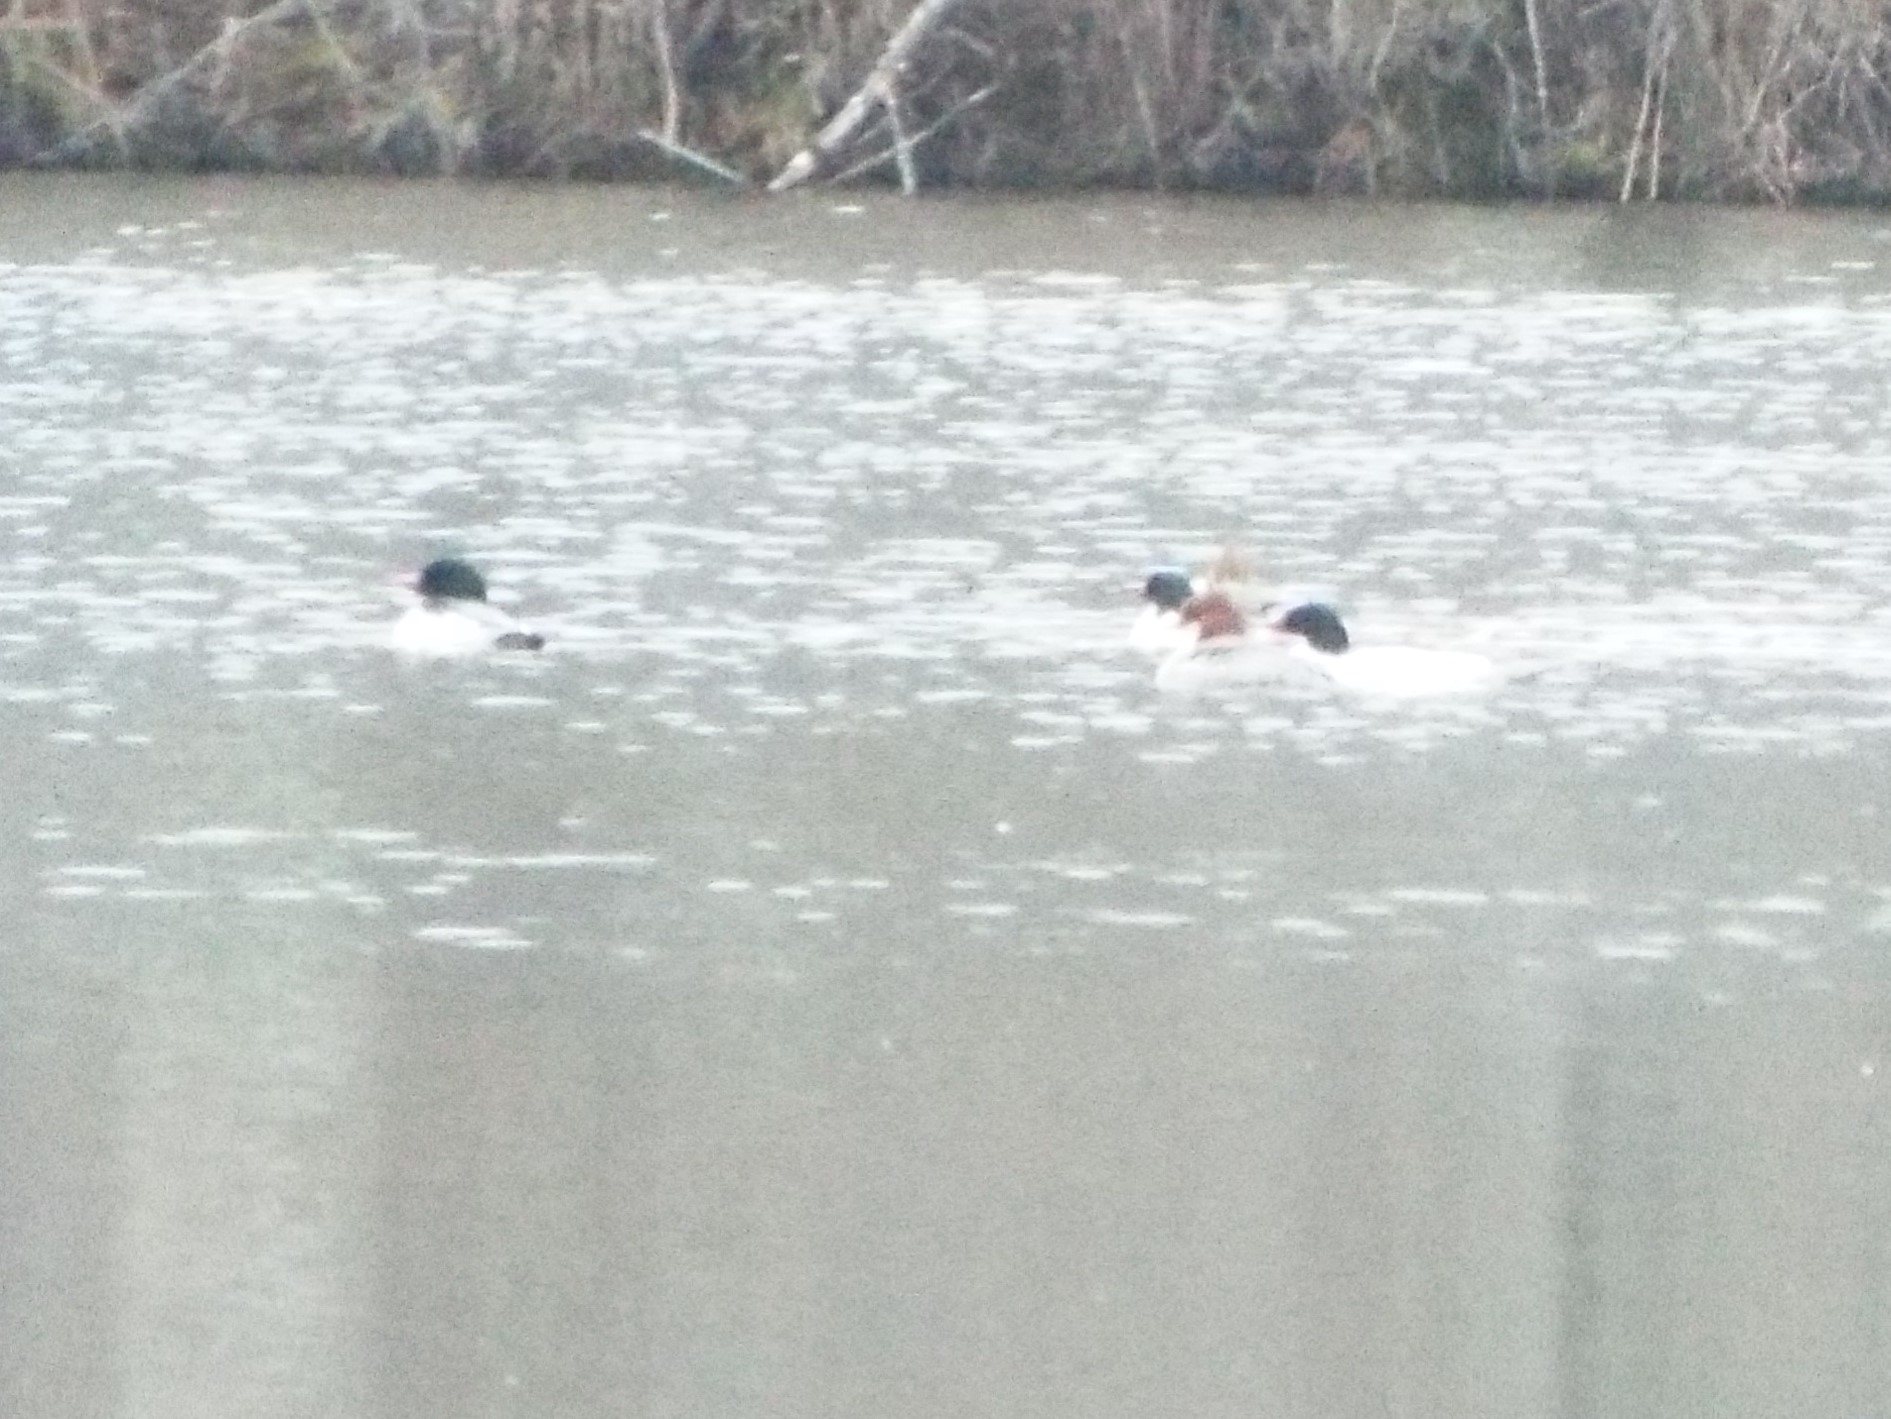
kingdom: Animalia
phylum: Chordata
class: Aves
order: Anseriformes
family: Anatidae
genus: Mergus
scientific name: Mergus merganser
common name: Common merganser
